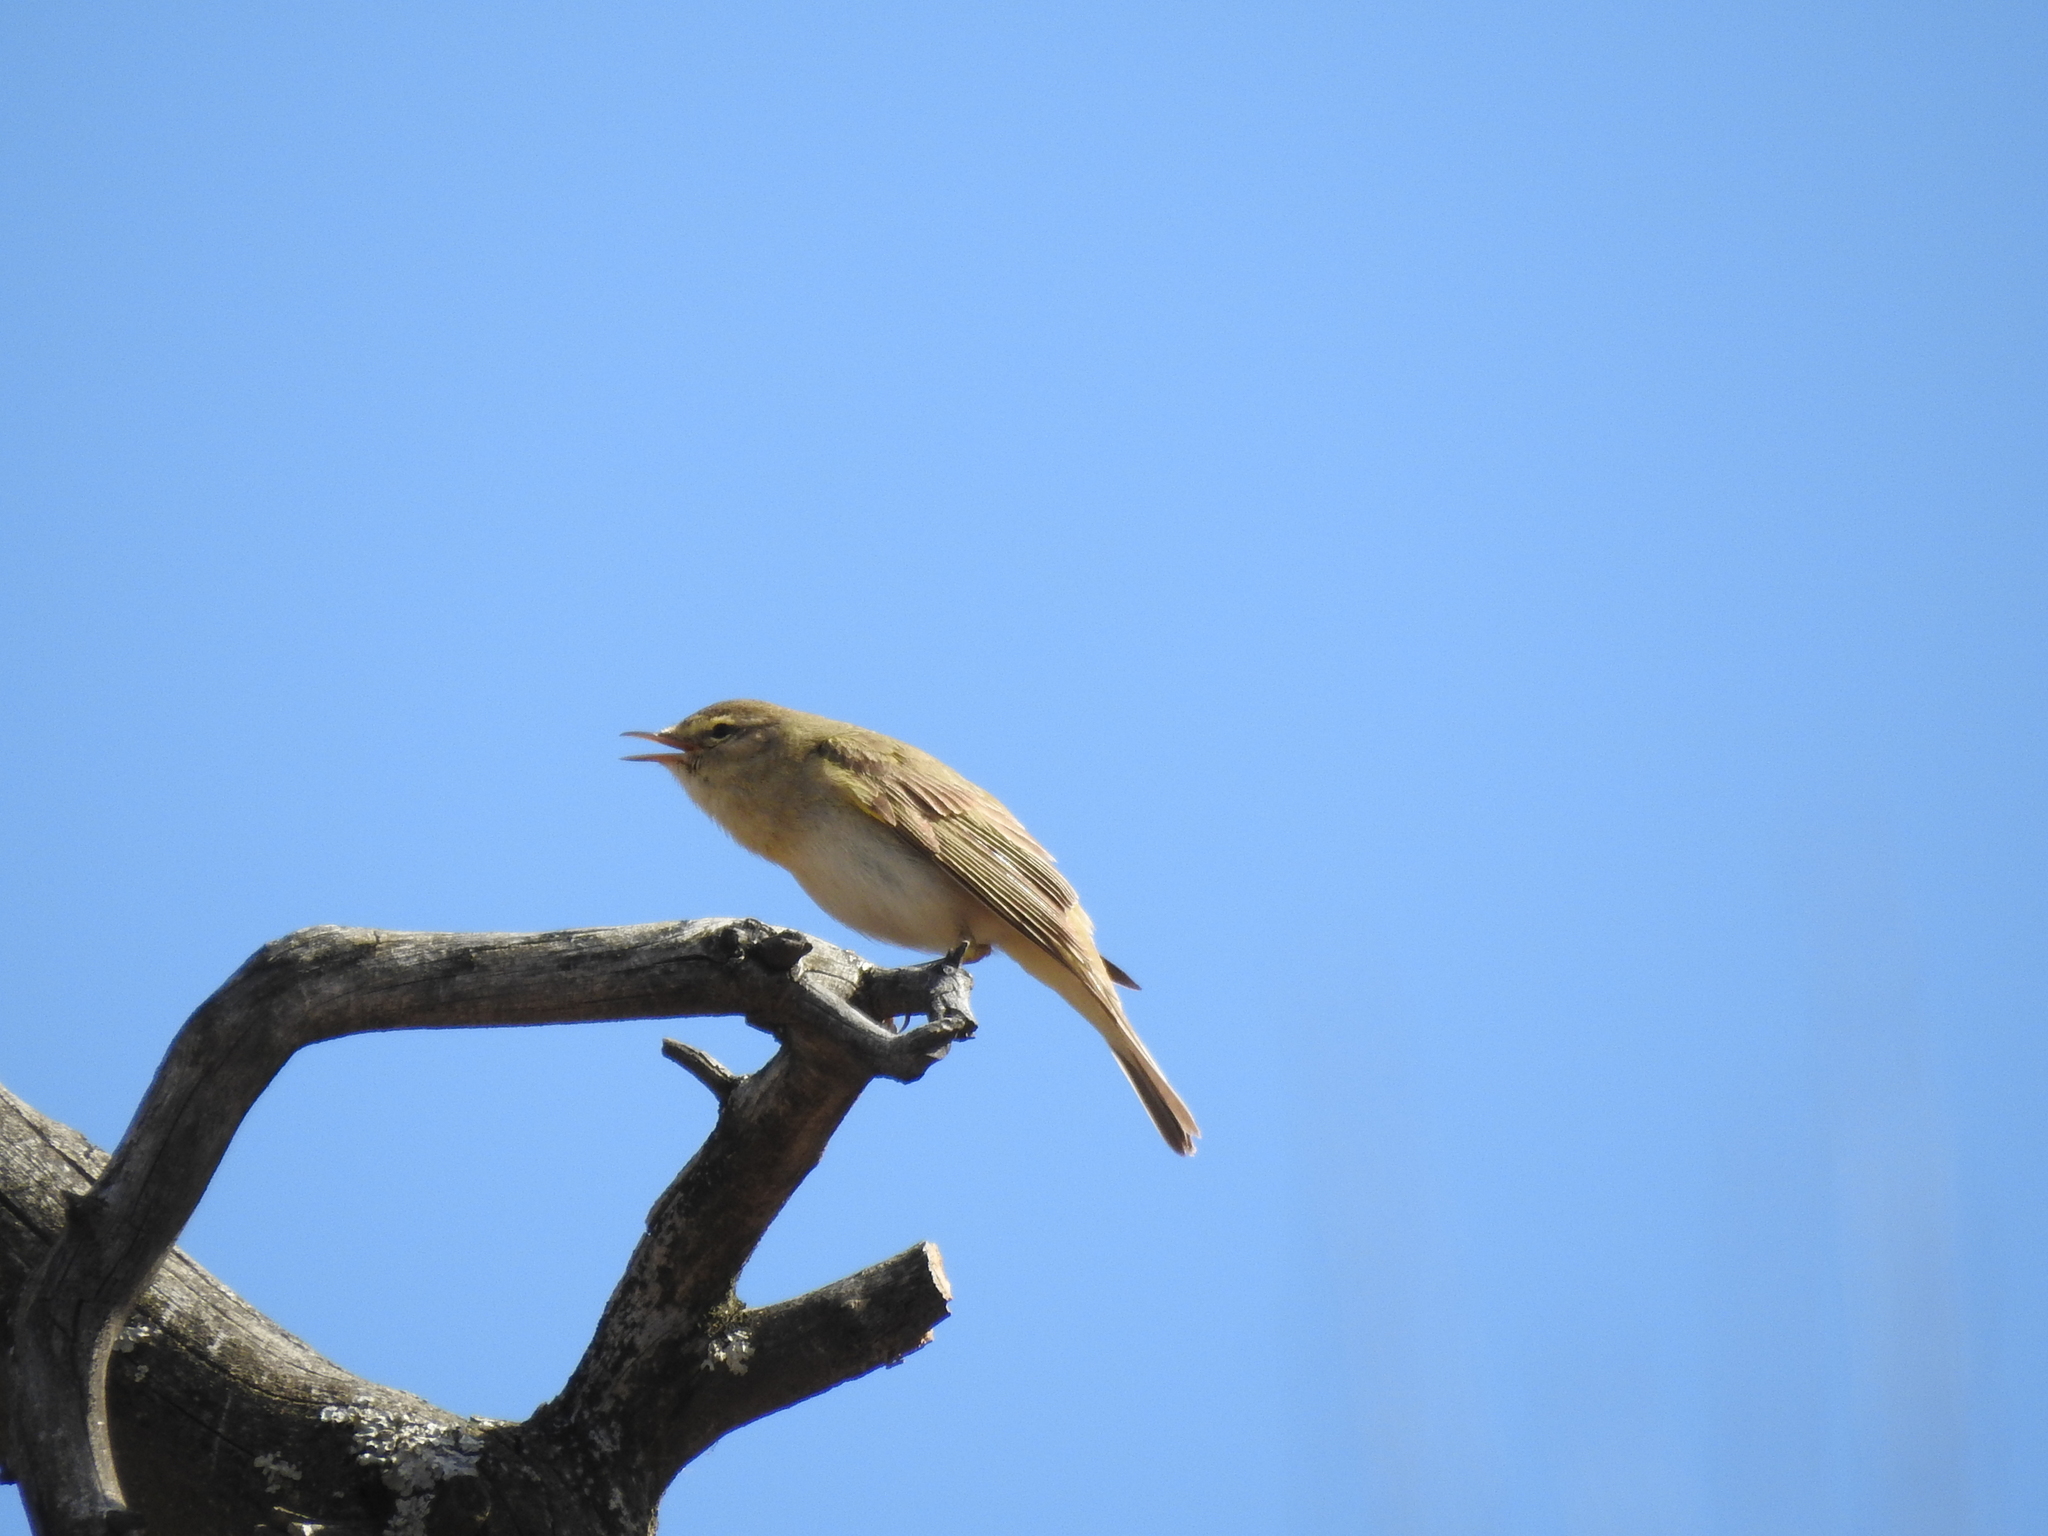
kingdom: Animalia
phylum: Chordata
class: Aves
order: Passeriformes
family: Phylloscopidae
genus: Phylloscopus
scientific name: Phylloscopus trochilus
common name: Willow warbler
